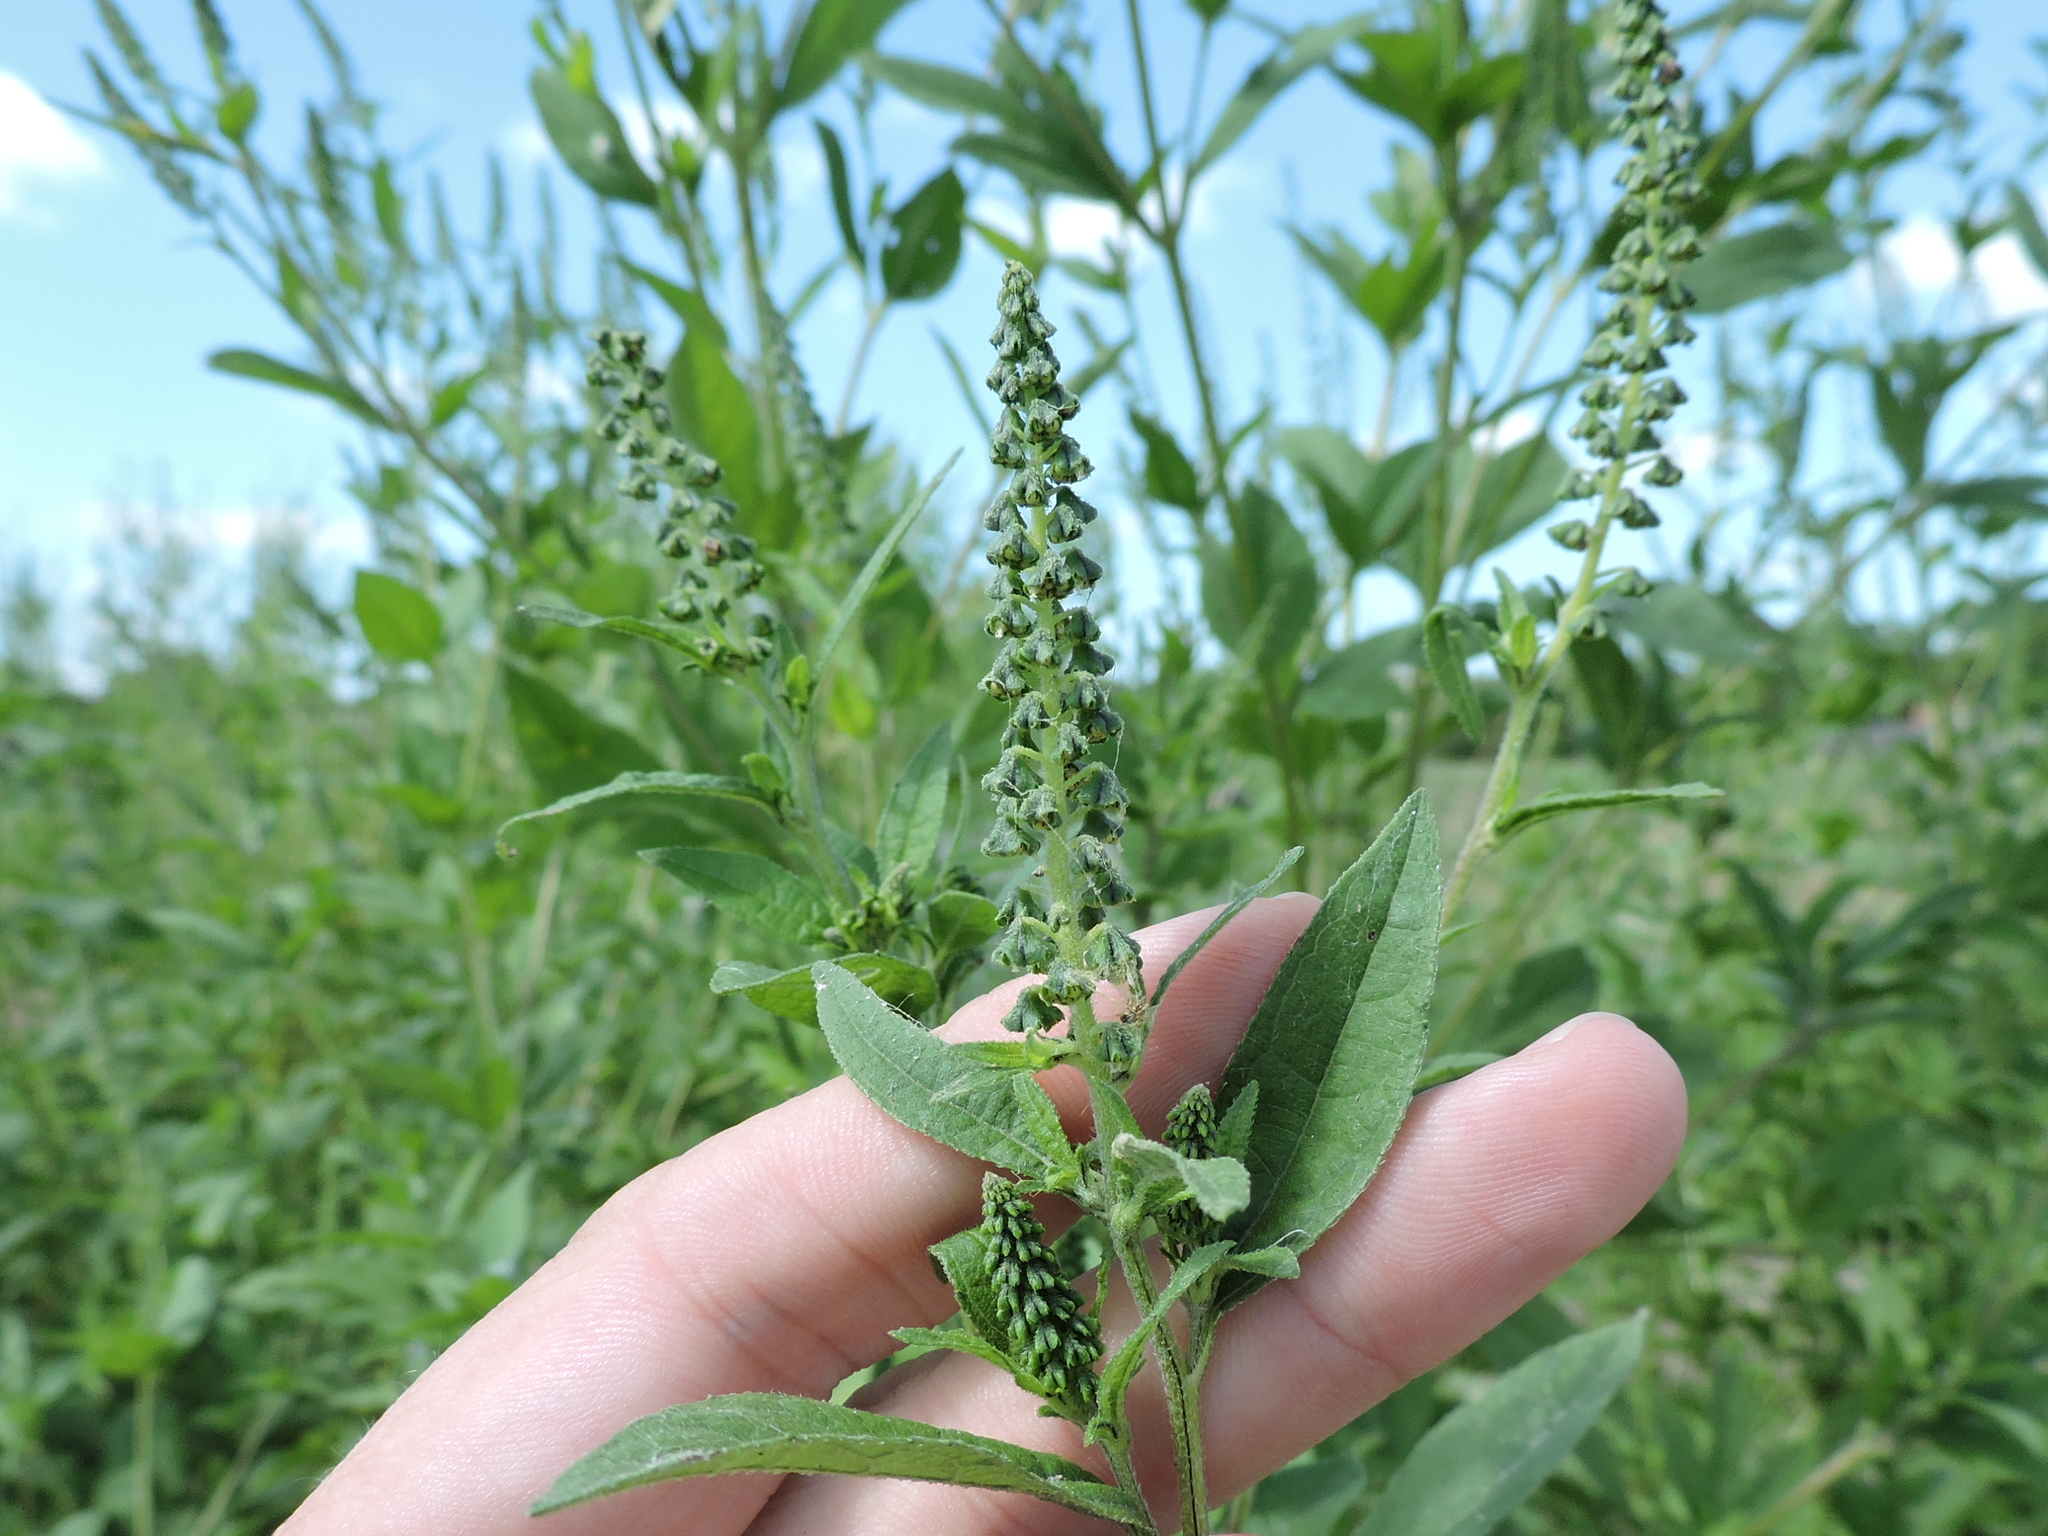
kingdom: Plantae
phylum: Tracheophyta
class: Magnoliopsida
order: Asterales
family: Asteraceae
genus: Ambrosia
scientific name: Ambrosia trifida
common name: Giant ragweed
